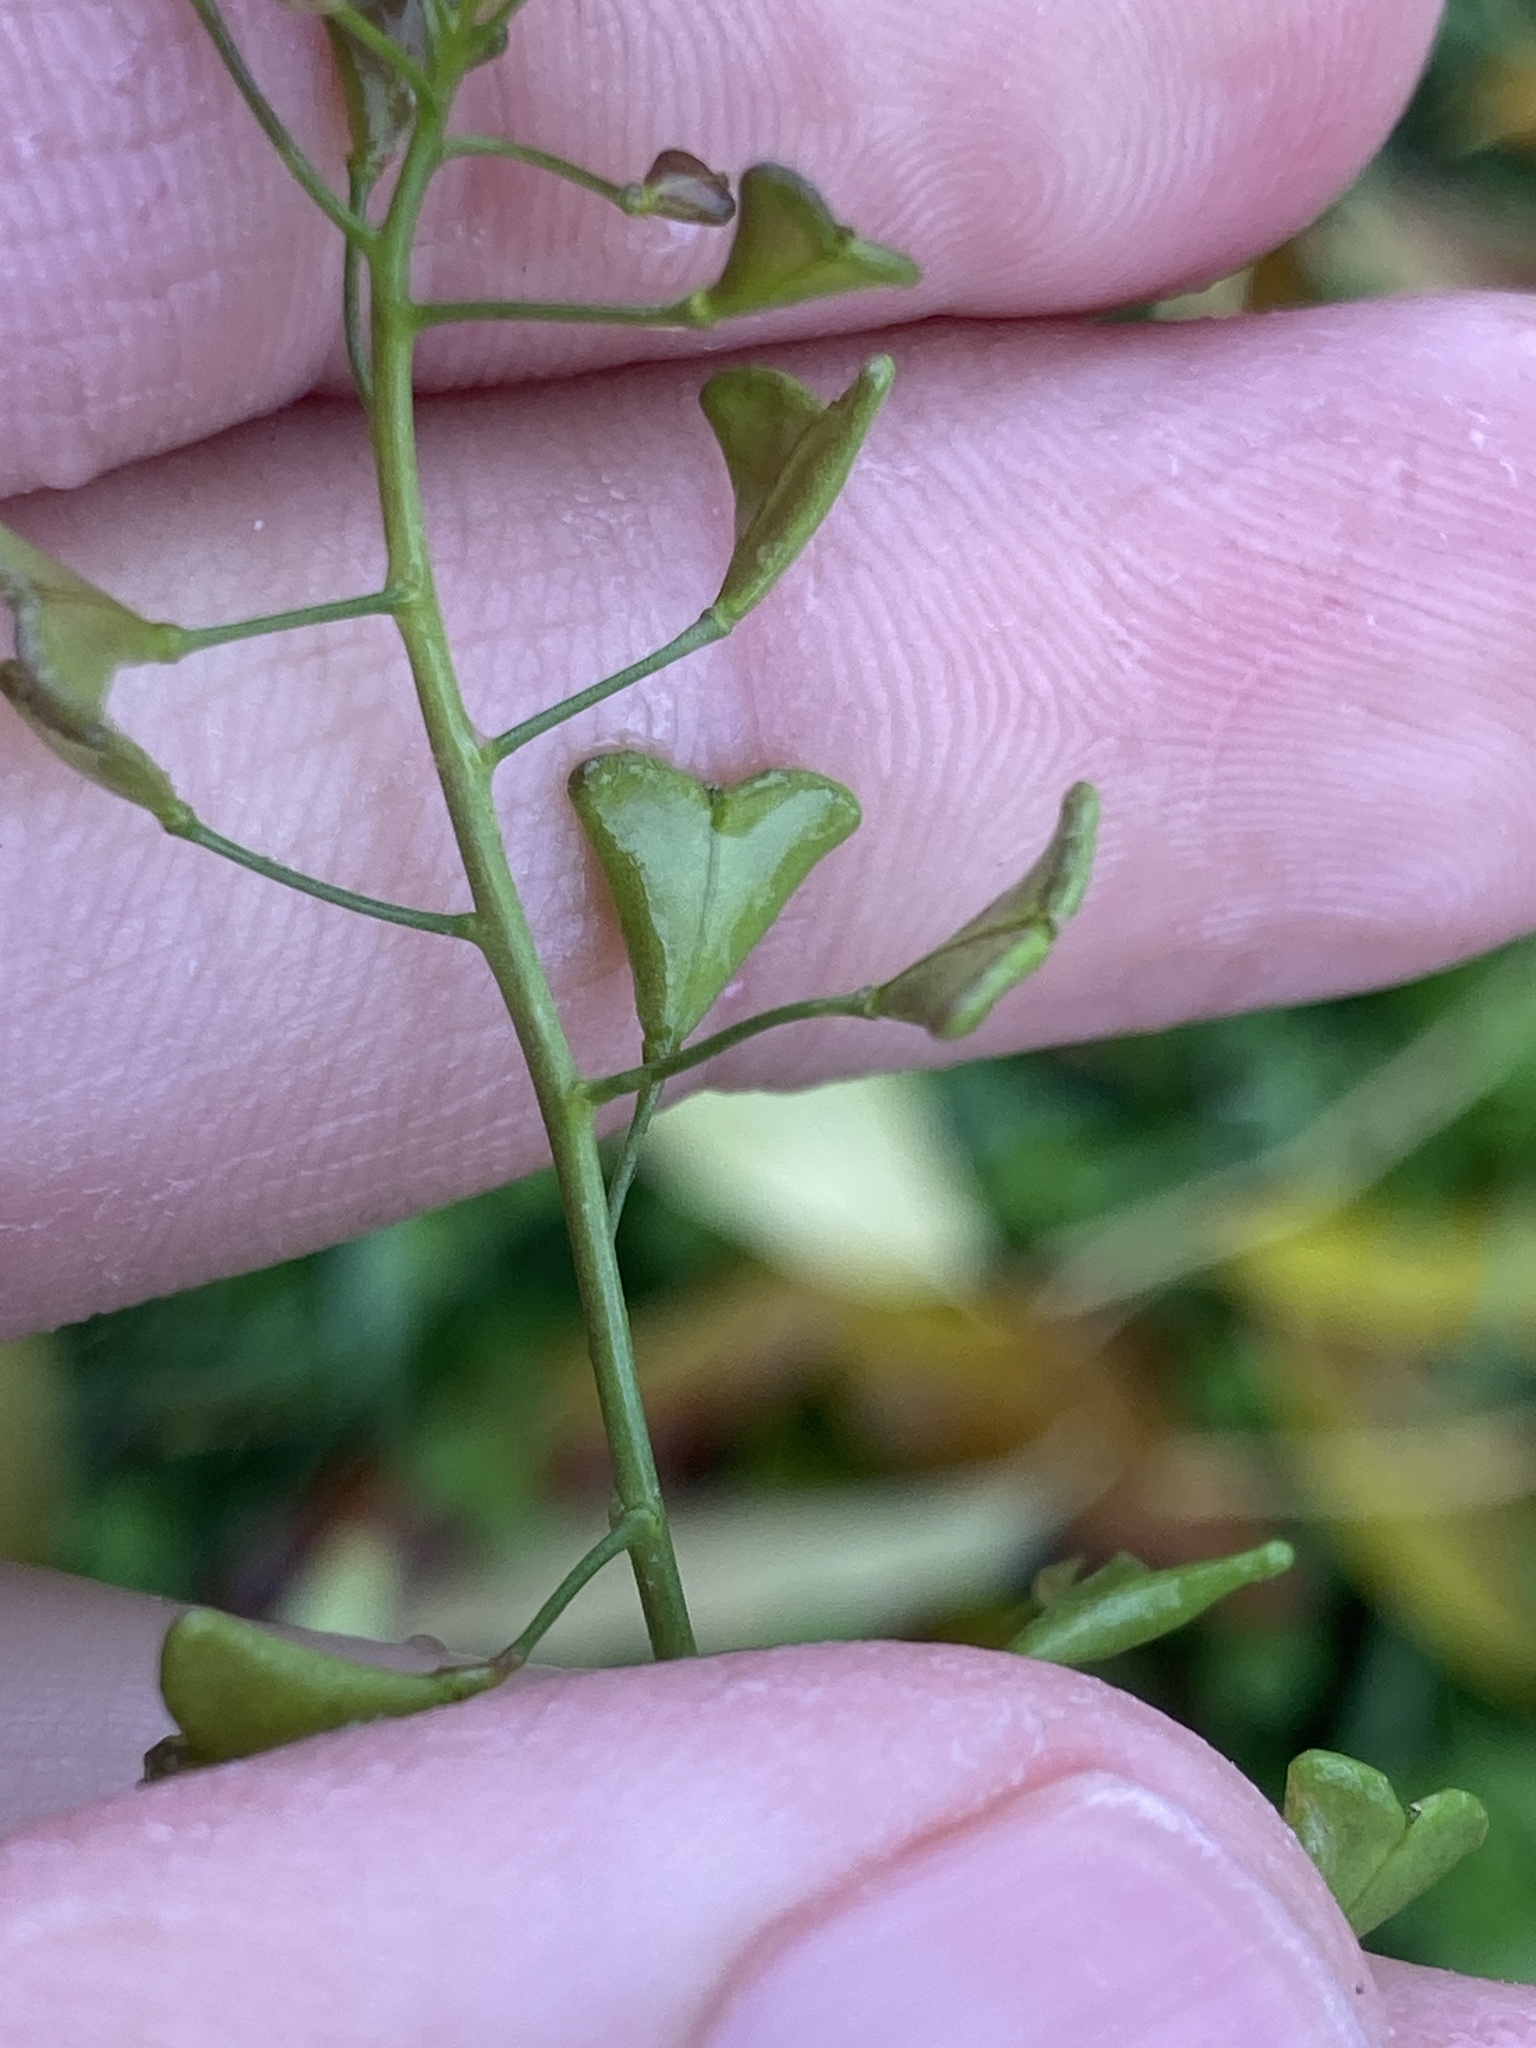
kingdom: Plantae
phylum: Tracheophyta
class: Magnoliopsida
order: Brassicales
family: Brassicaceae
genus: Capsella
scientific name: Capsella bursa-pastoris
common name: Shepherd's purse
